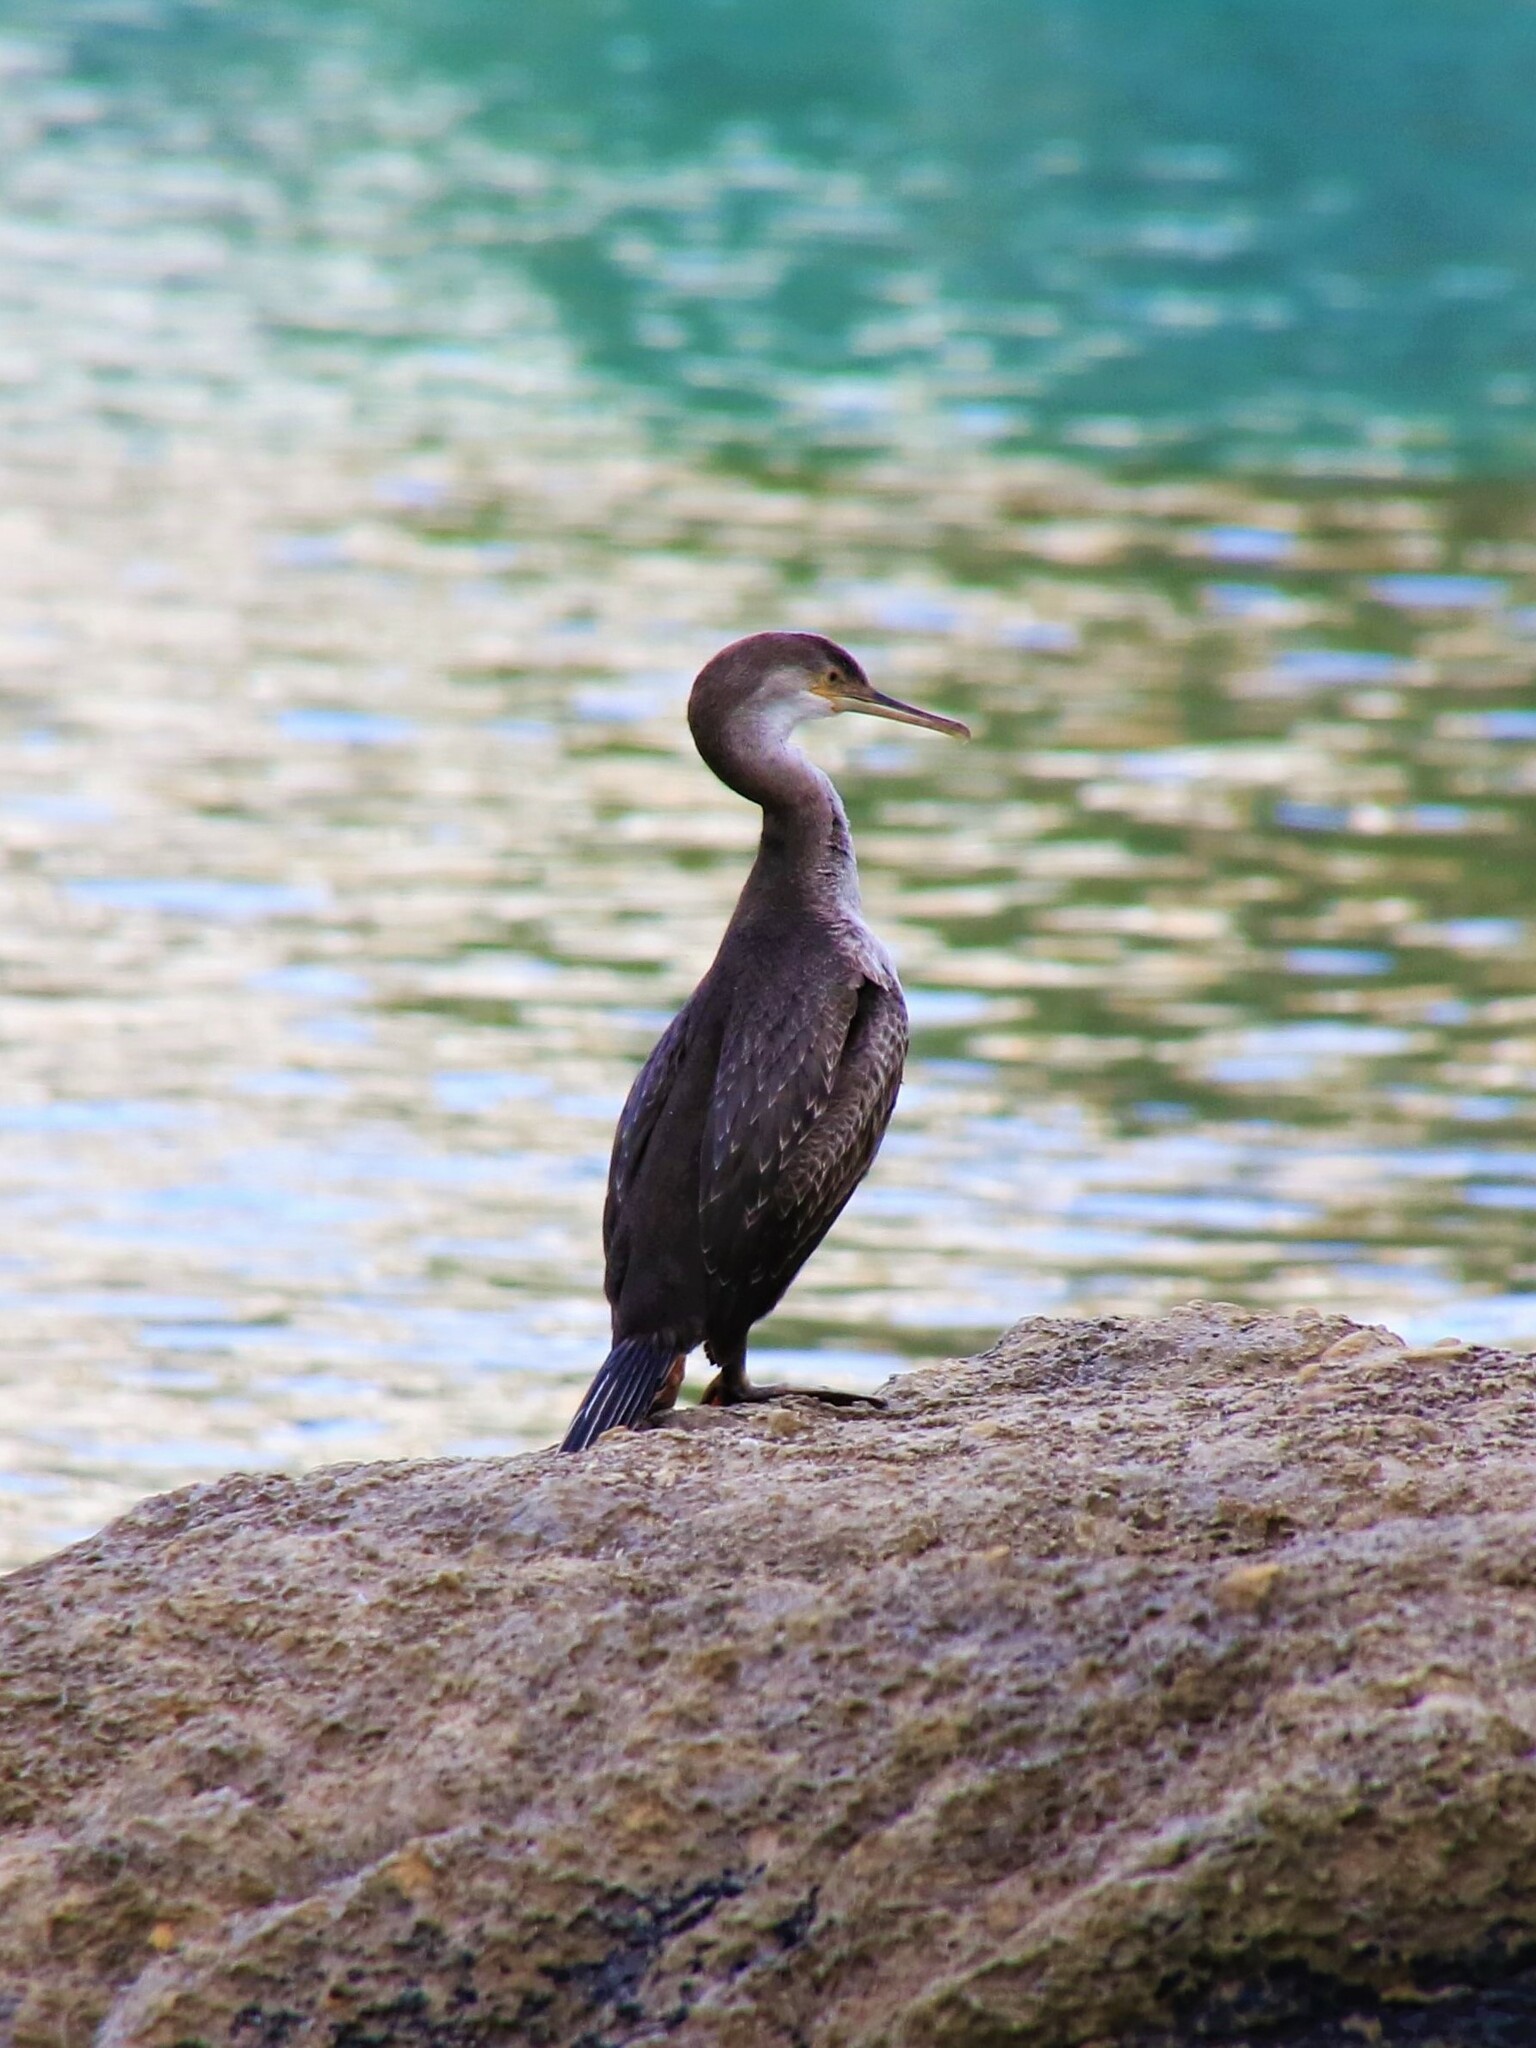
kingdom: Animalia
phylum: Chordata
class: Aves
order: Suliformes
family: Phalacrocoracidae
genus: Phalacrocorax
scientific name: Phalacrocorax aristotelis
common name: European shag
